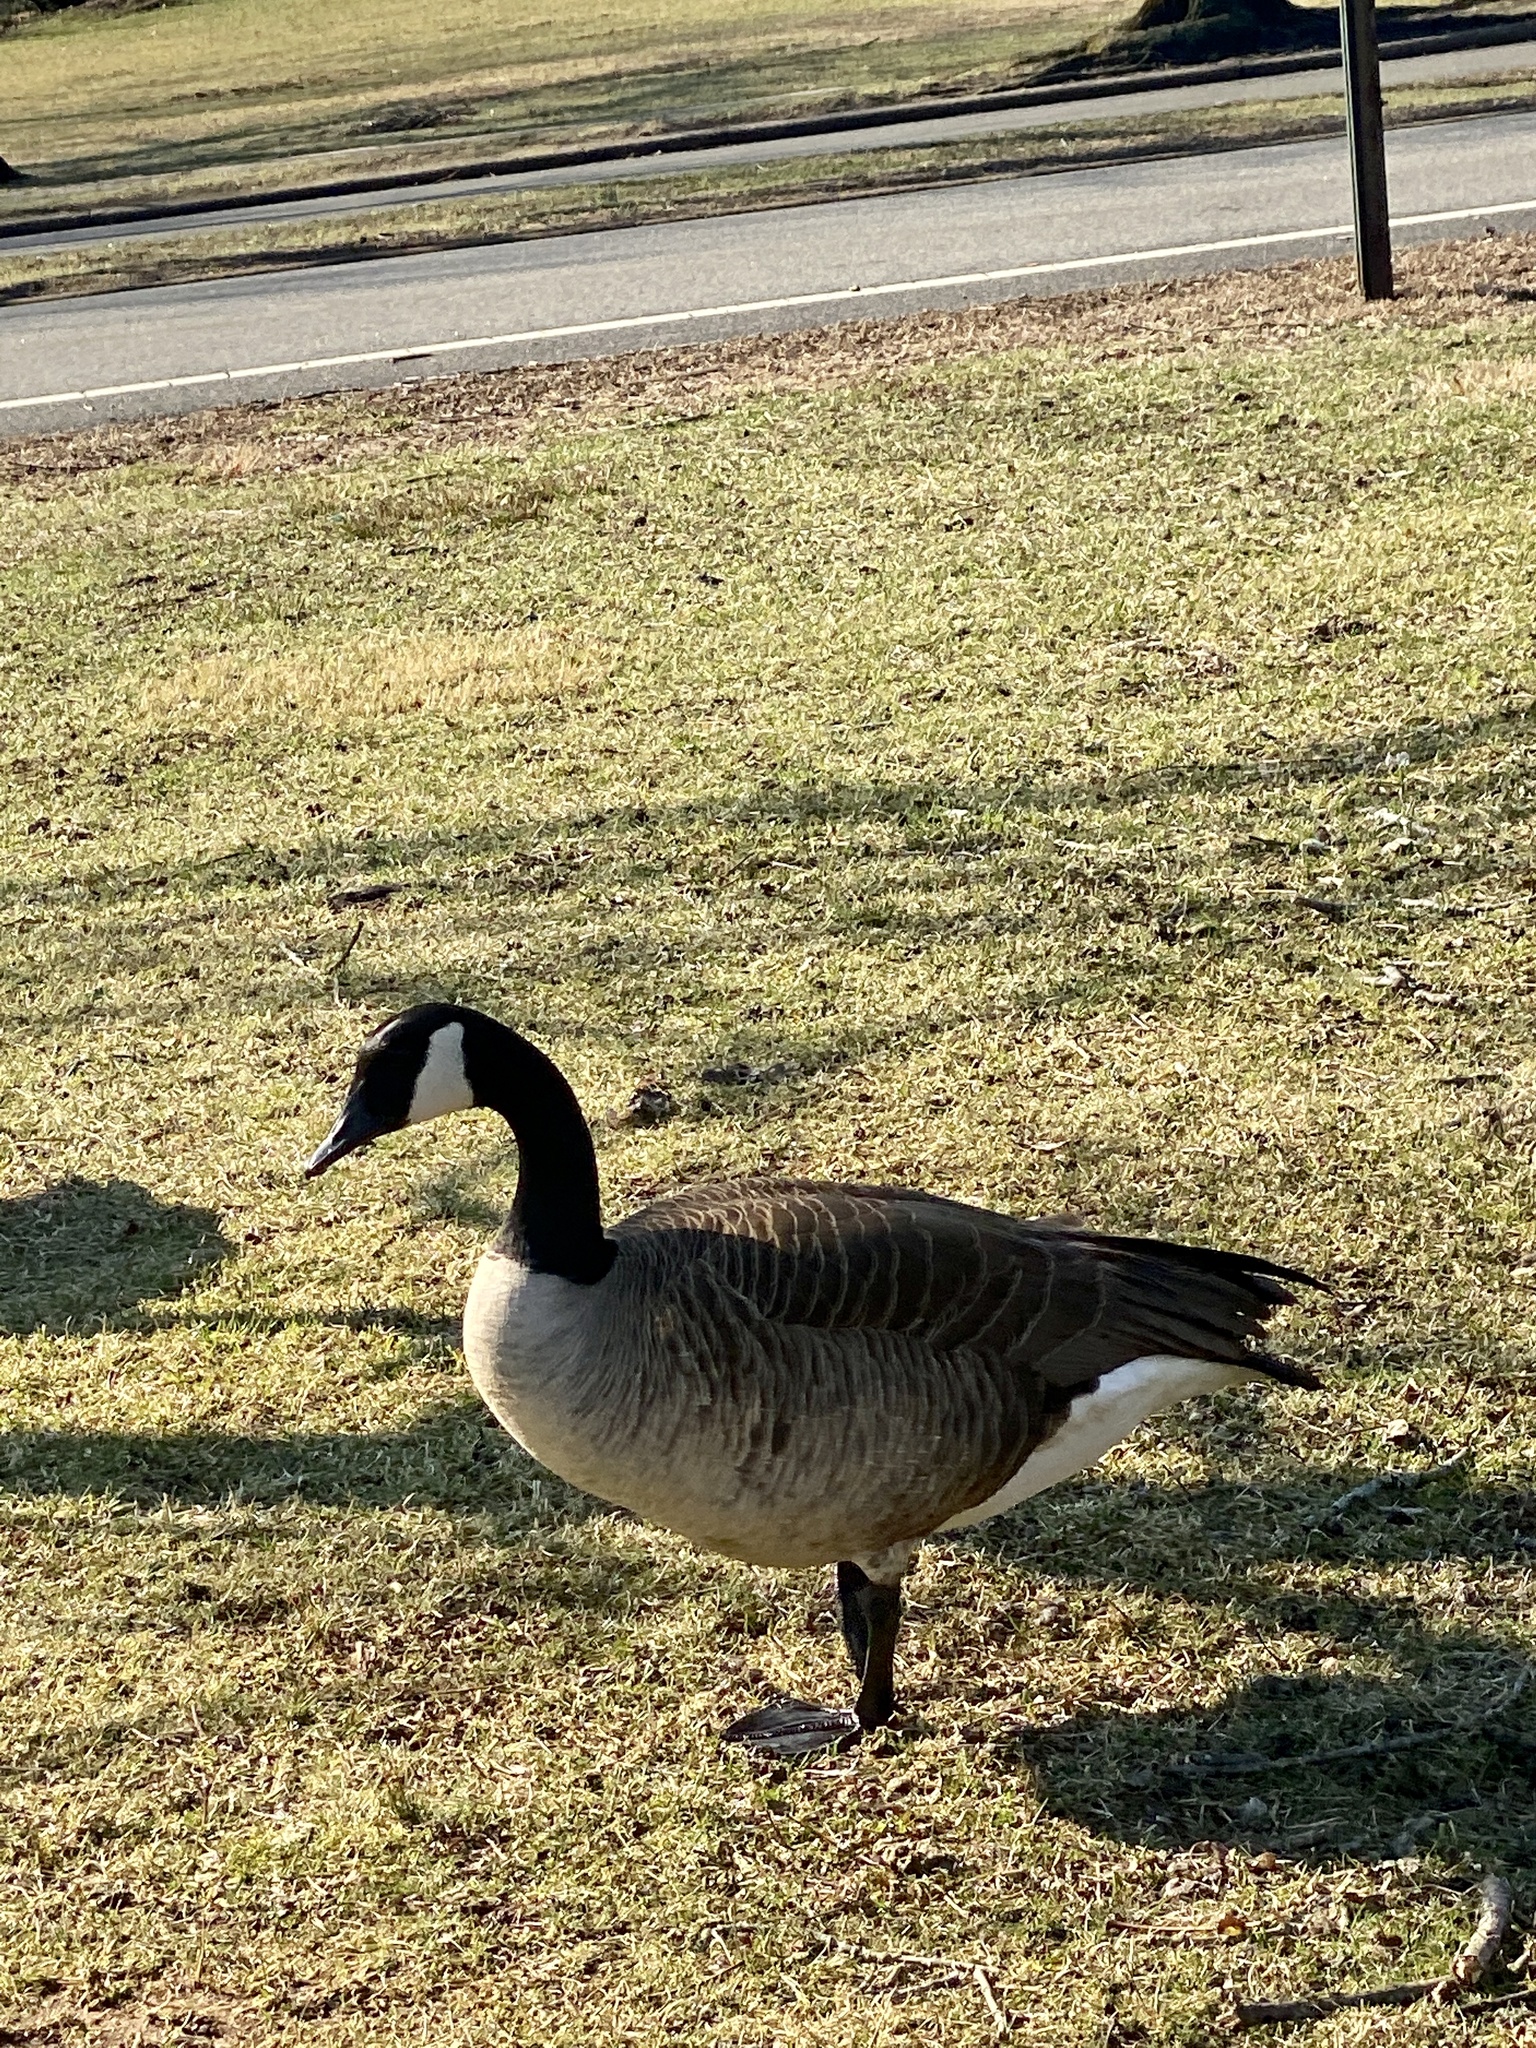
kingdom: Animalia
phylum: Chordata
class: Aves
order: Anseriformes
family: Anatidae
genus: Branta
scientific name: Branta canadensis
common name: Canada goose
